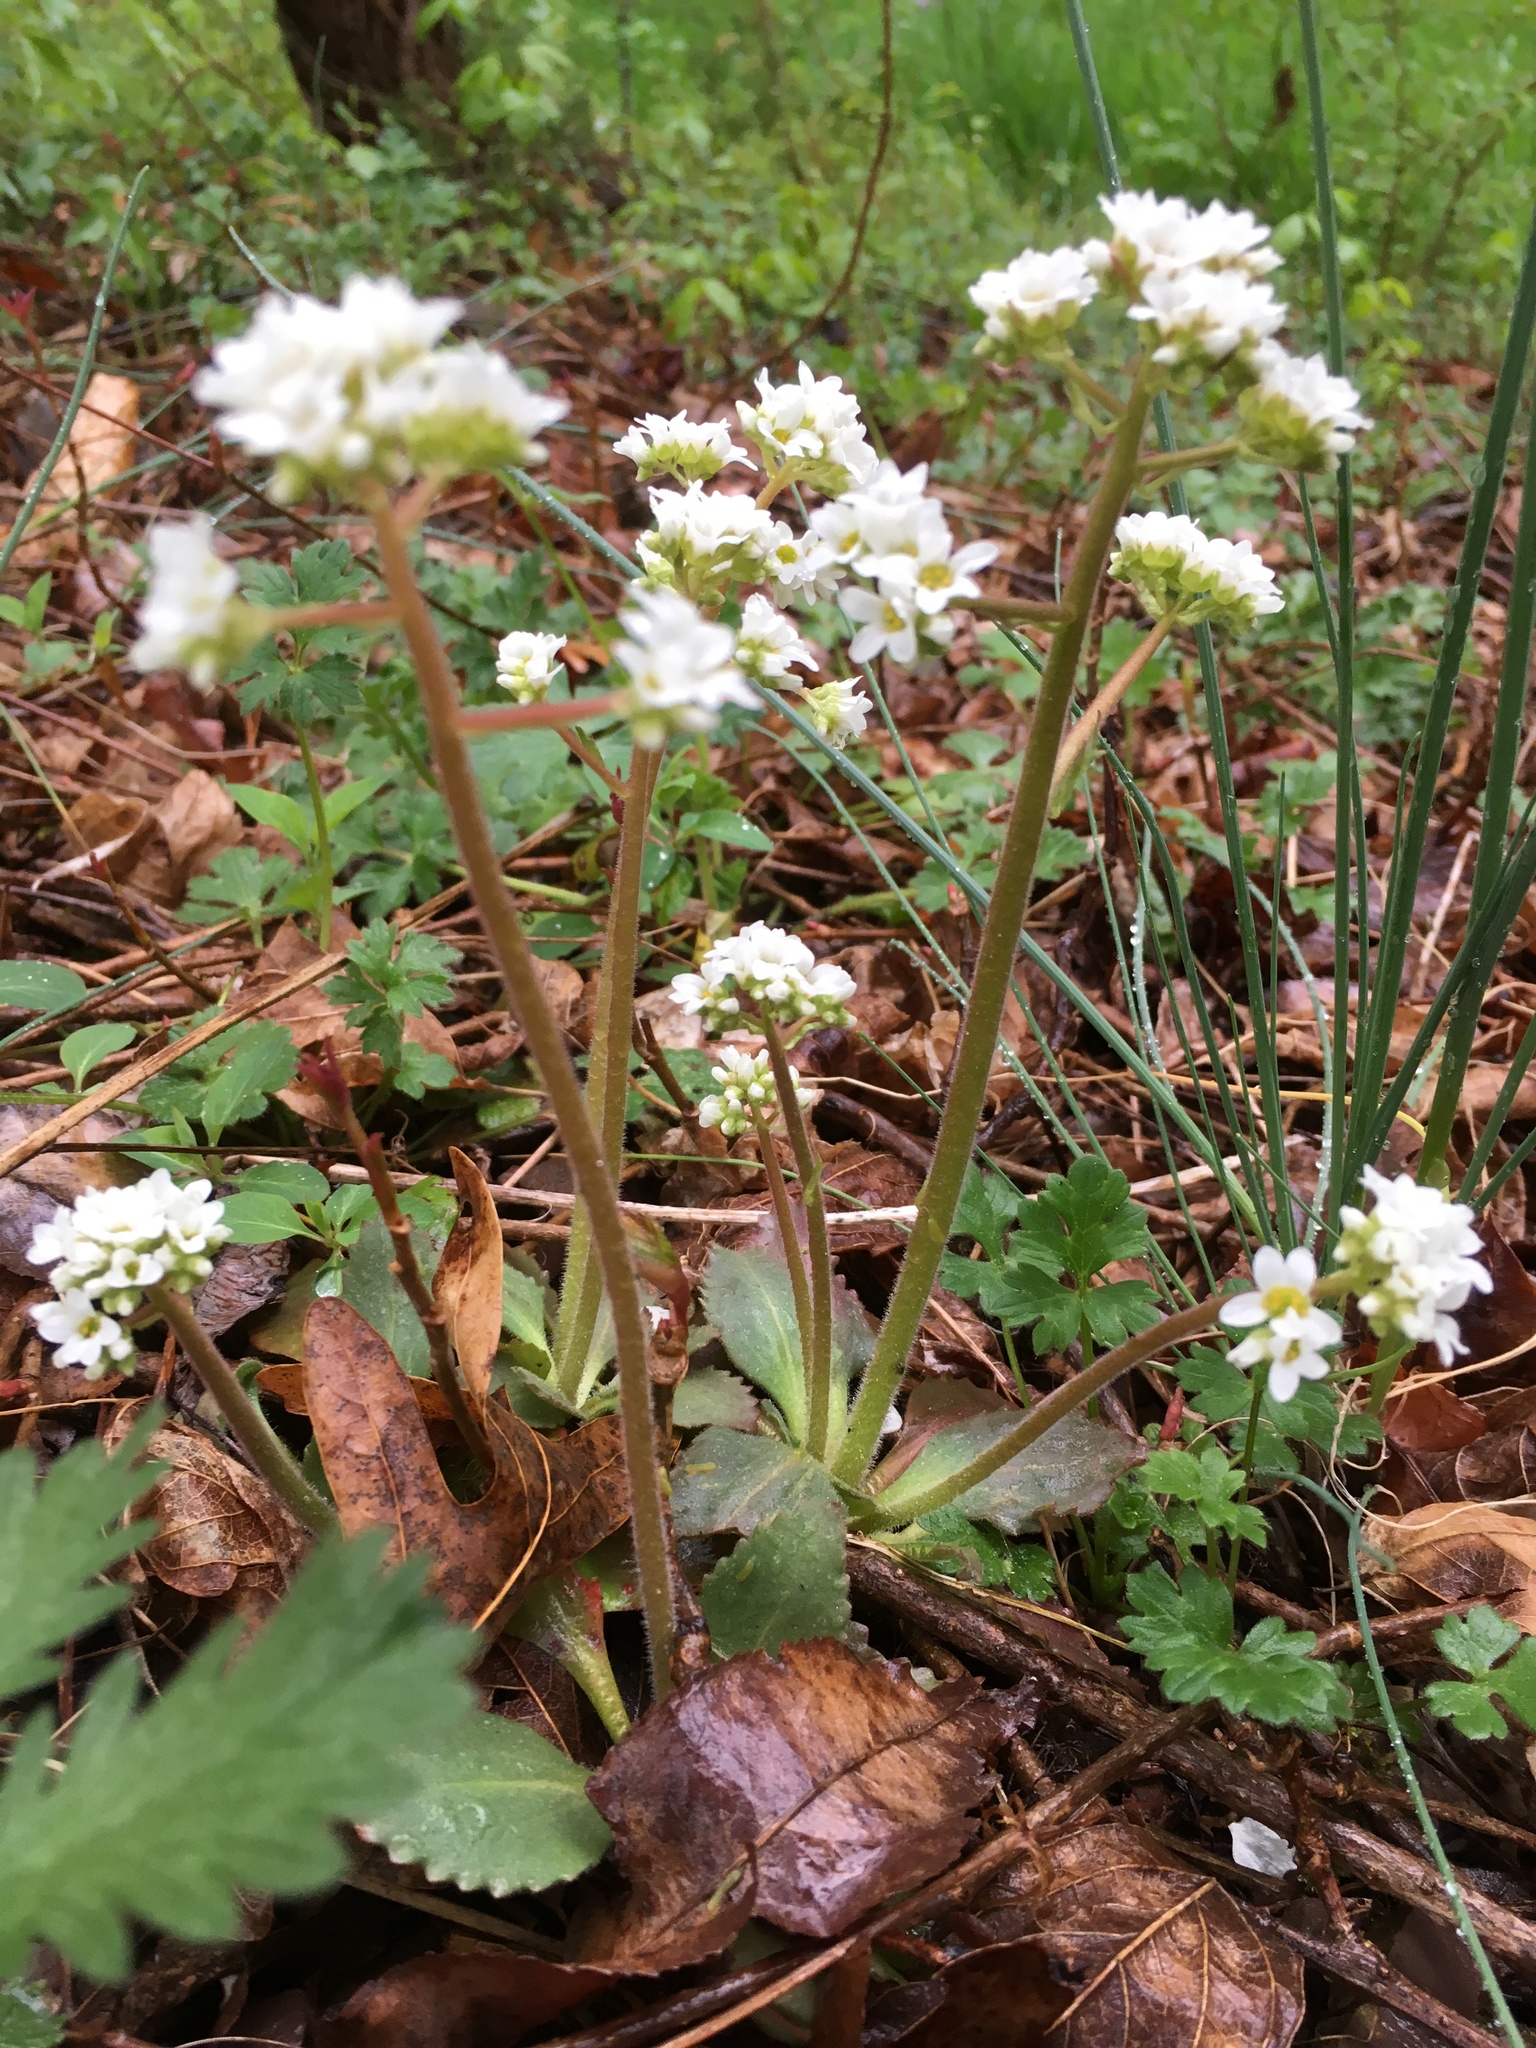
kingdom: Plantae
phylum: Tracheophyta
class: Magnoliopsida
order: Saxifragales
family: Saxifragaceae
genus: Micranthes
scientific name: Micranthes virginiensis
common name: Early saxifrage
